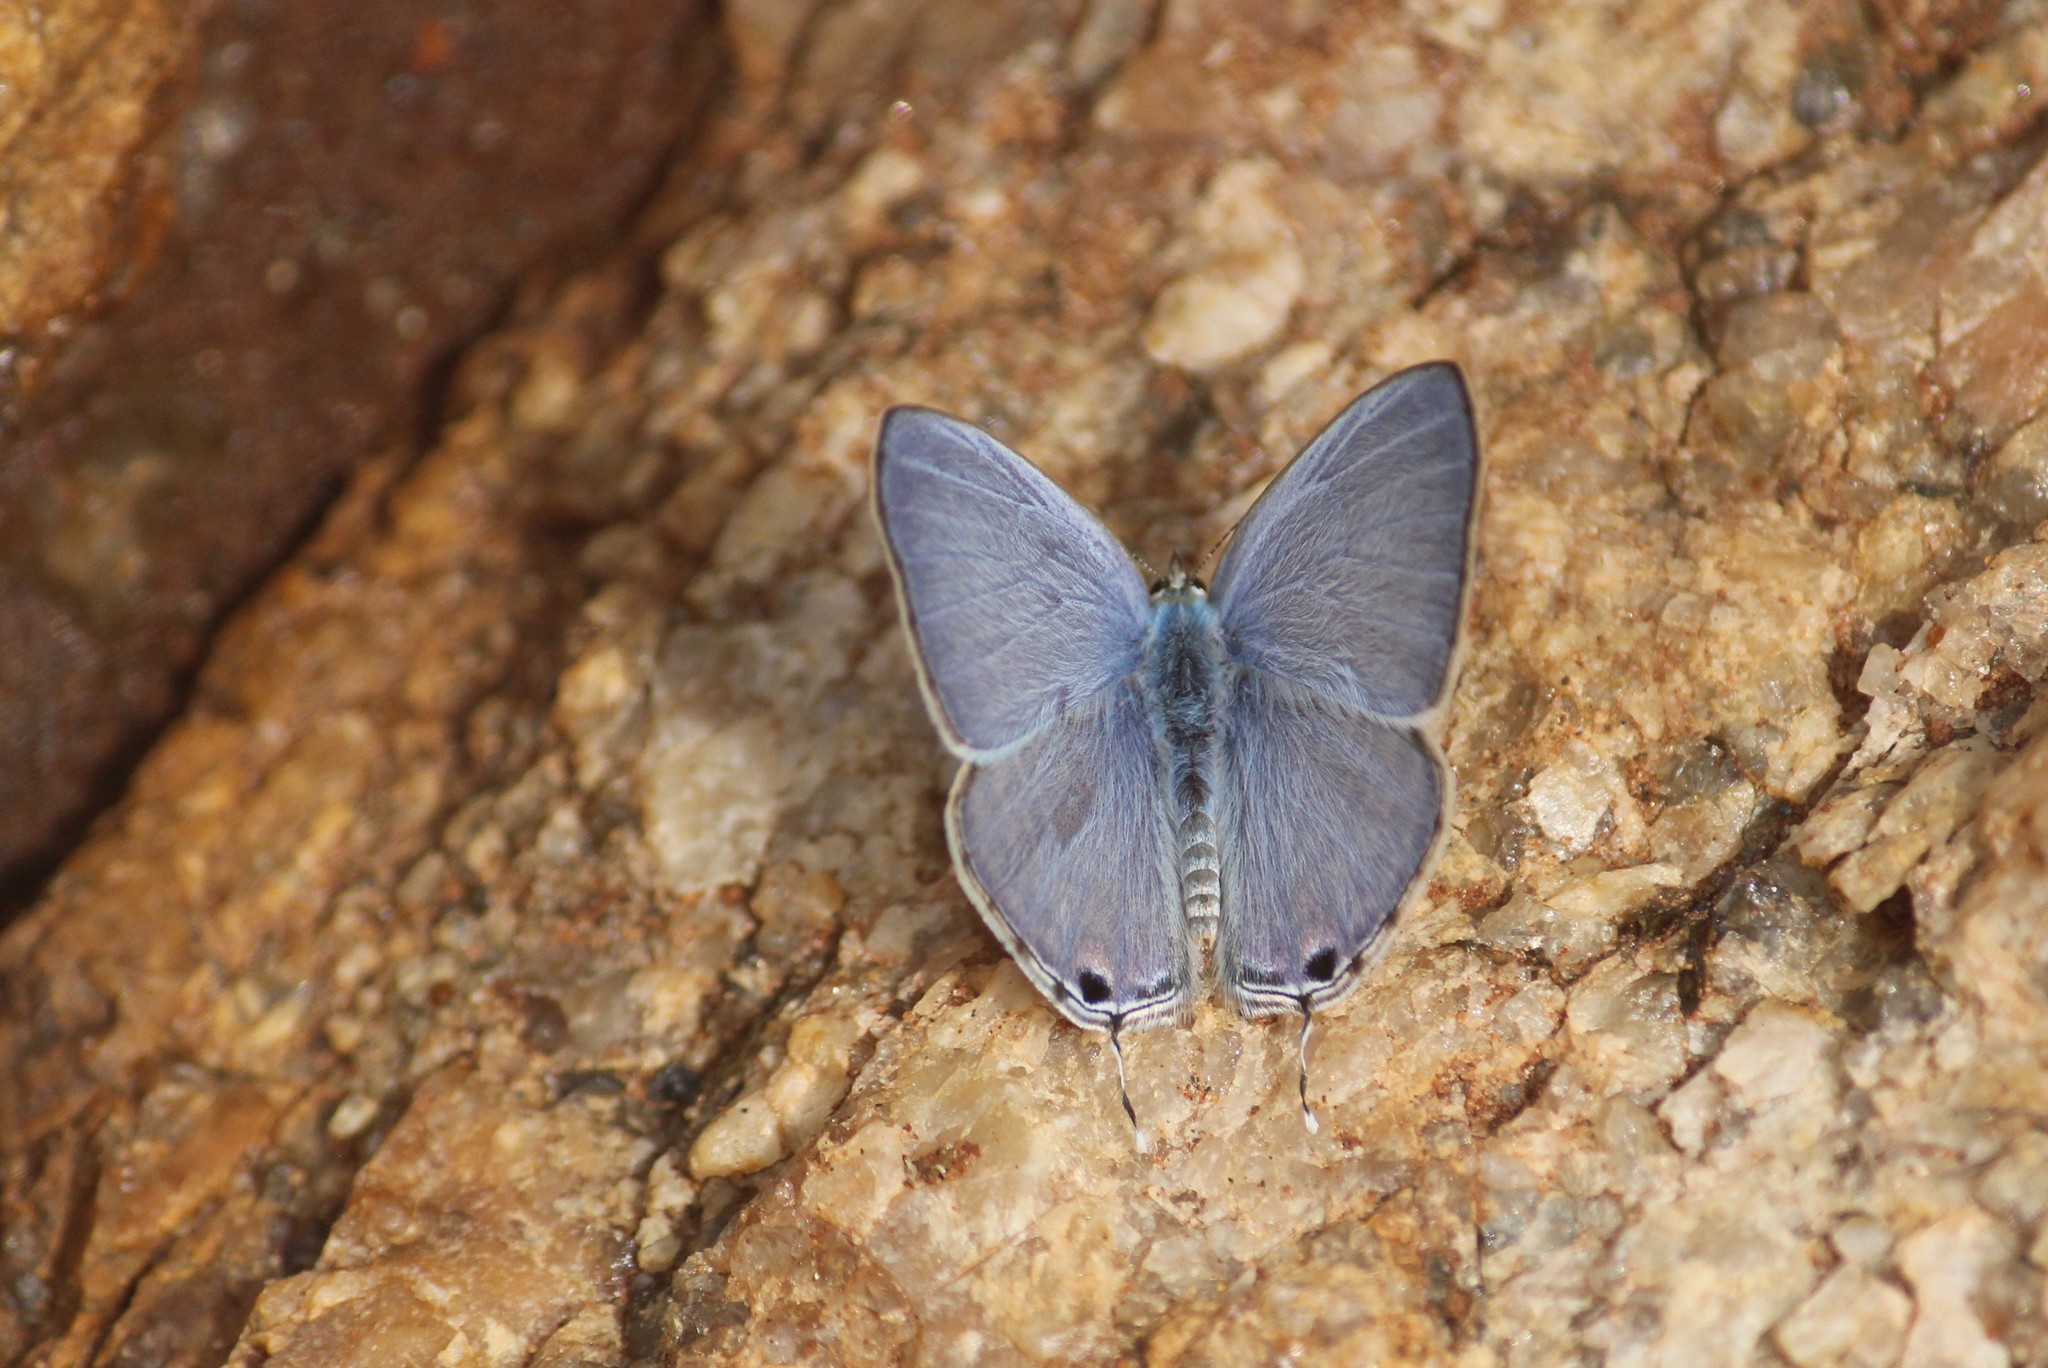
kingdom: Animalia
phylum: Arthropoda
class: Insecta
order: Lepidoptera
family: Lycaenidae
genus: Catochrysops
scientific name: Catochrysops strabo
